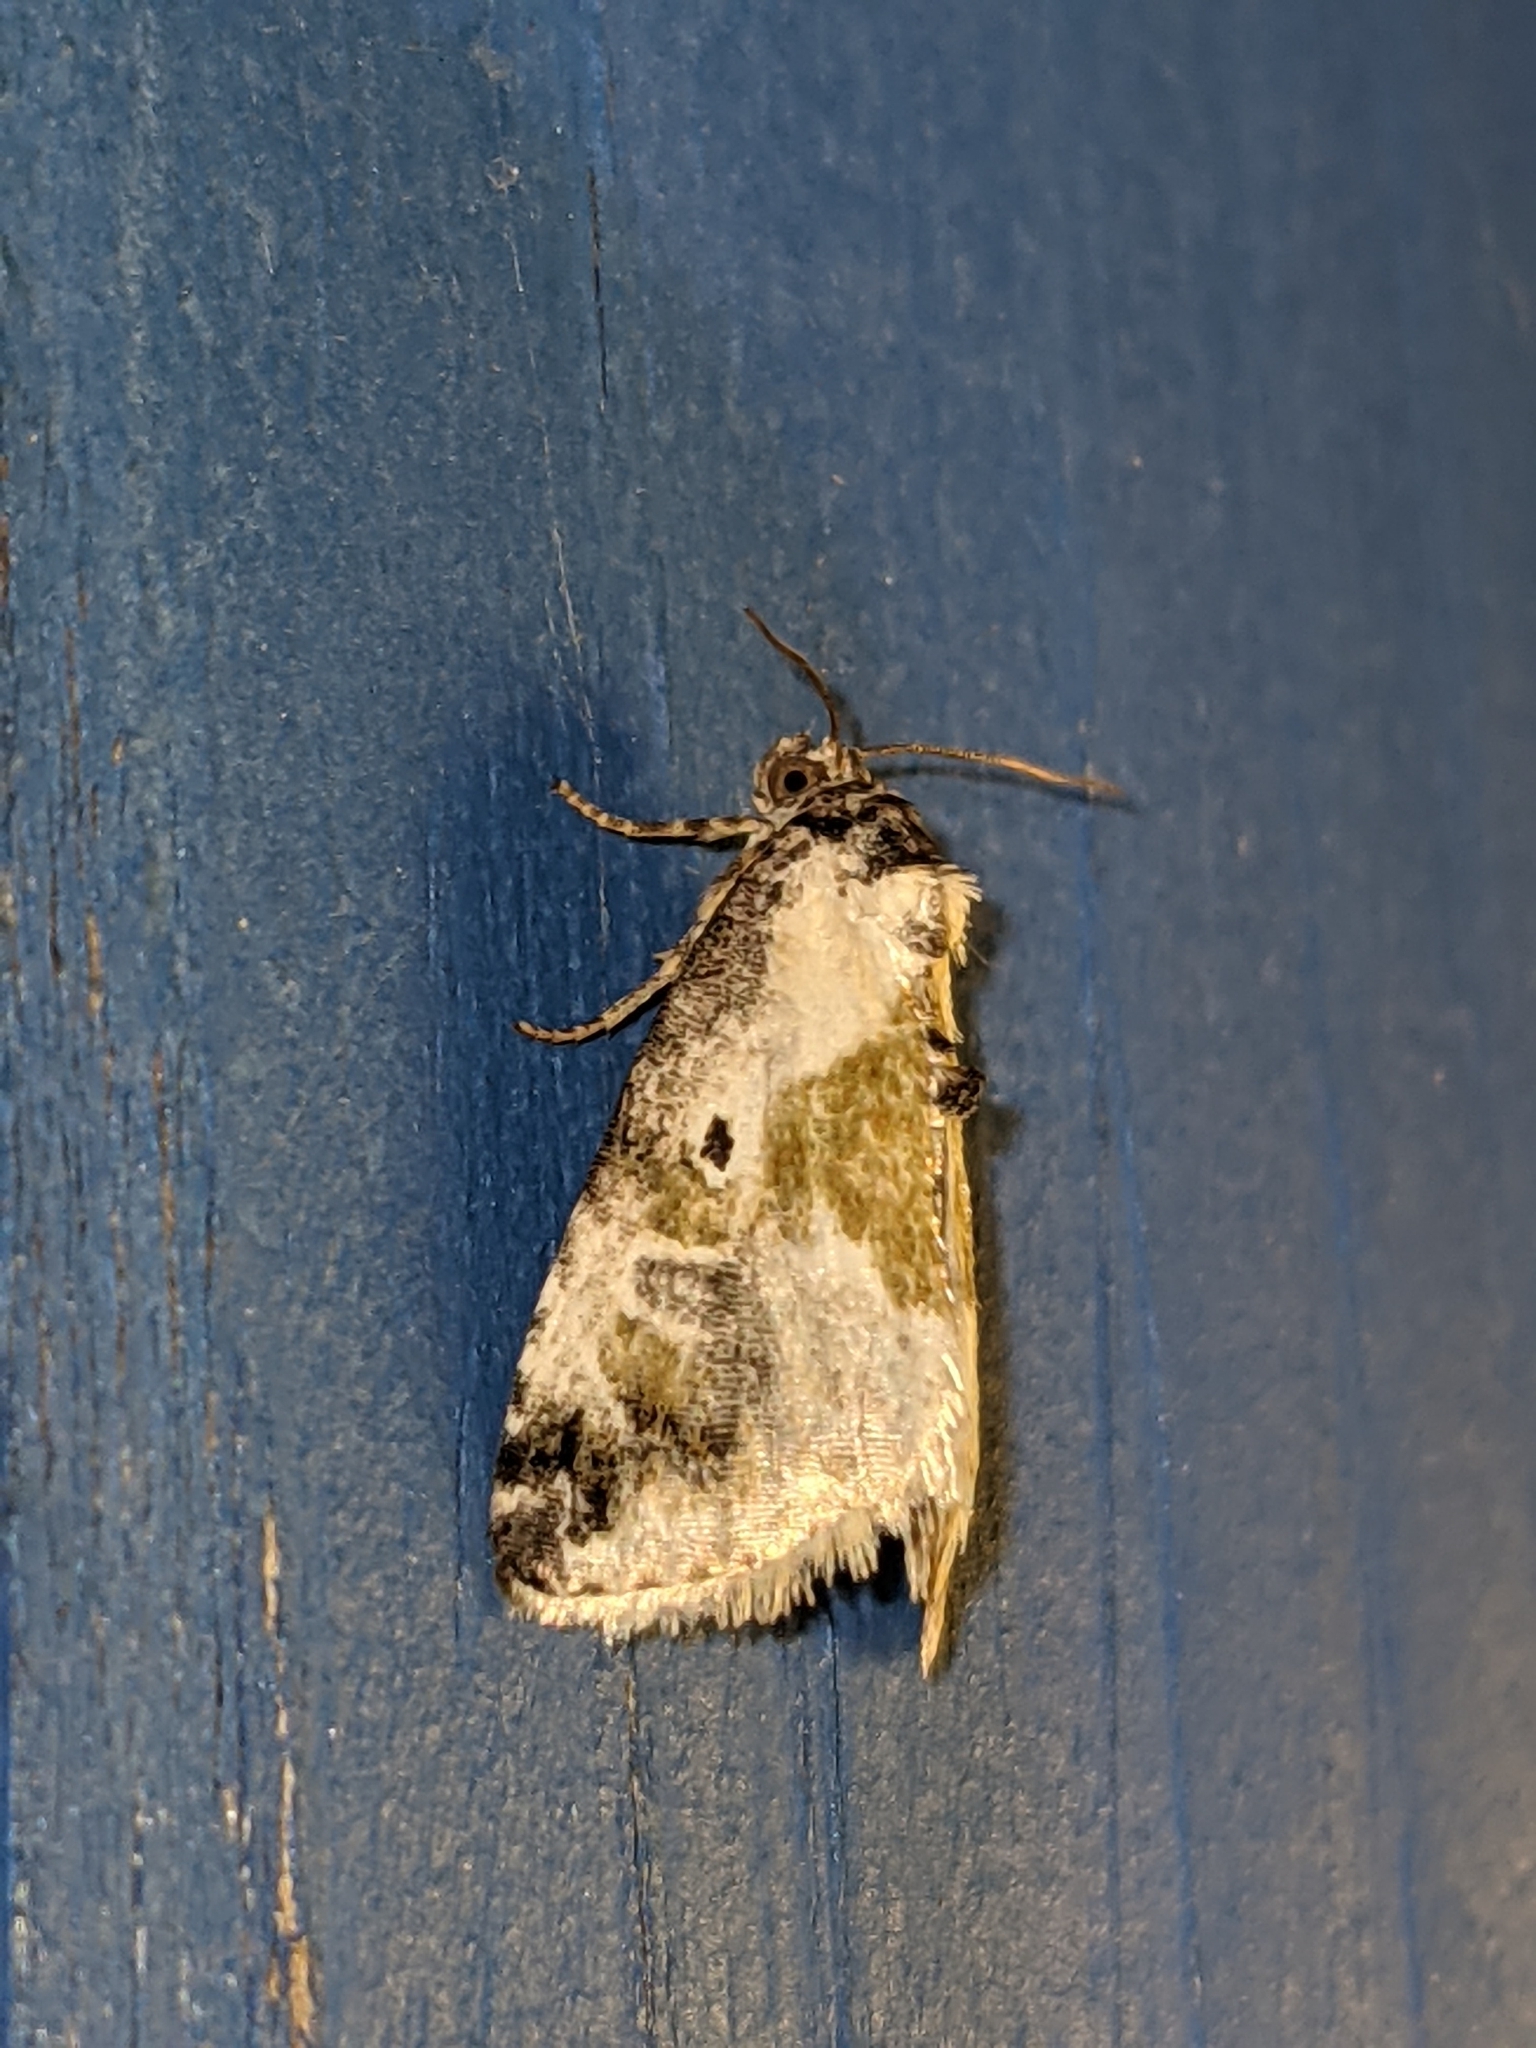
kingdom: Animalia
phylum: Arthropoda
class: Insecta
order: Lepidoptera
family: Noctuidae
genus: Maliattha
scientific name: Maliattha synochitis
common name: Black-dotted glyph
